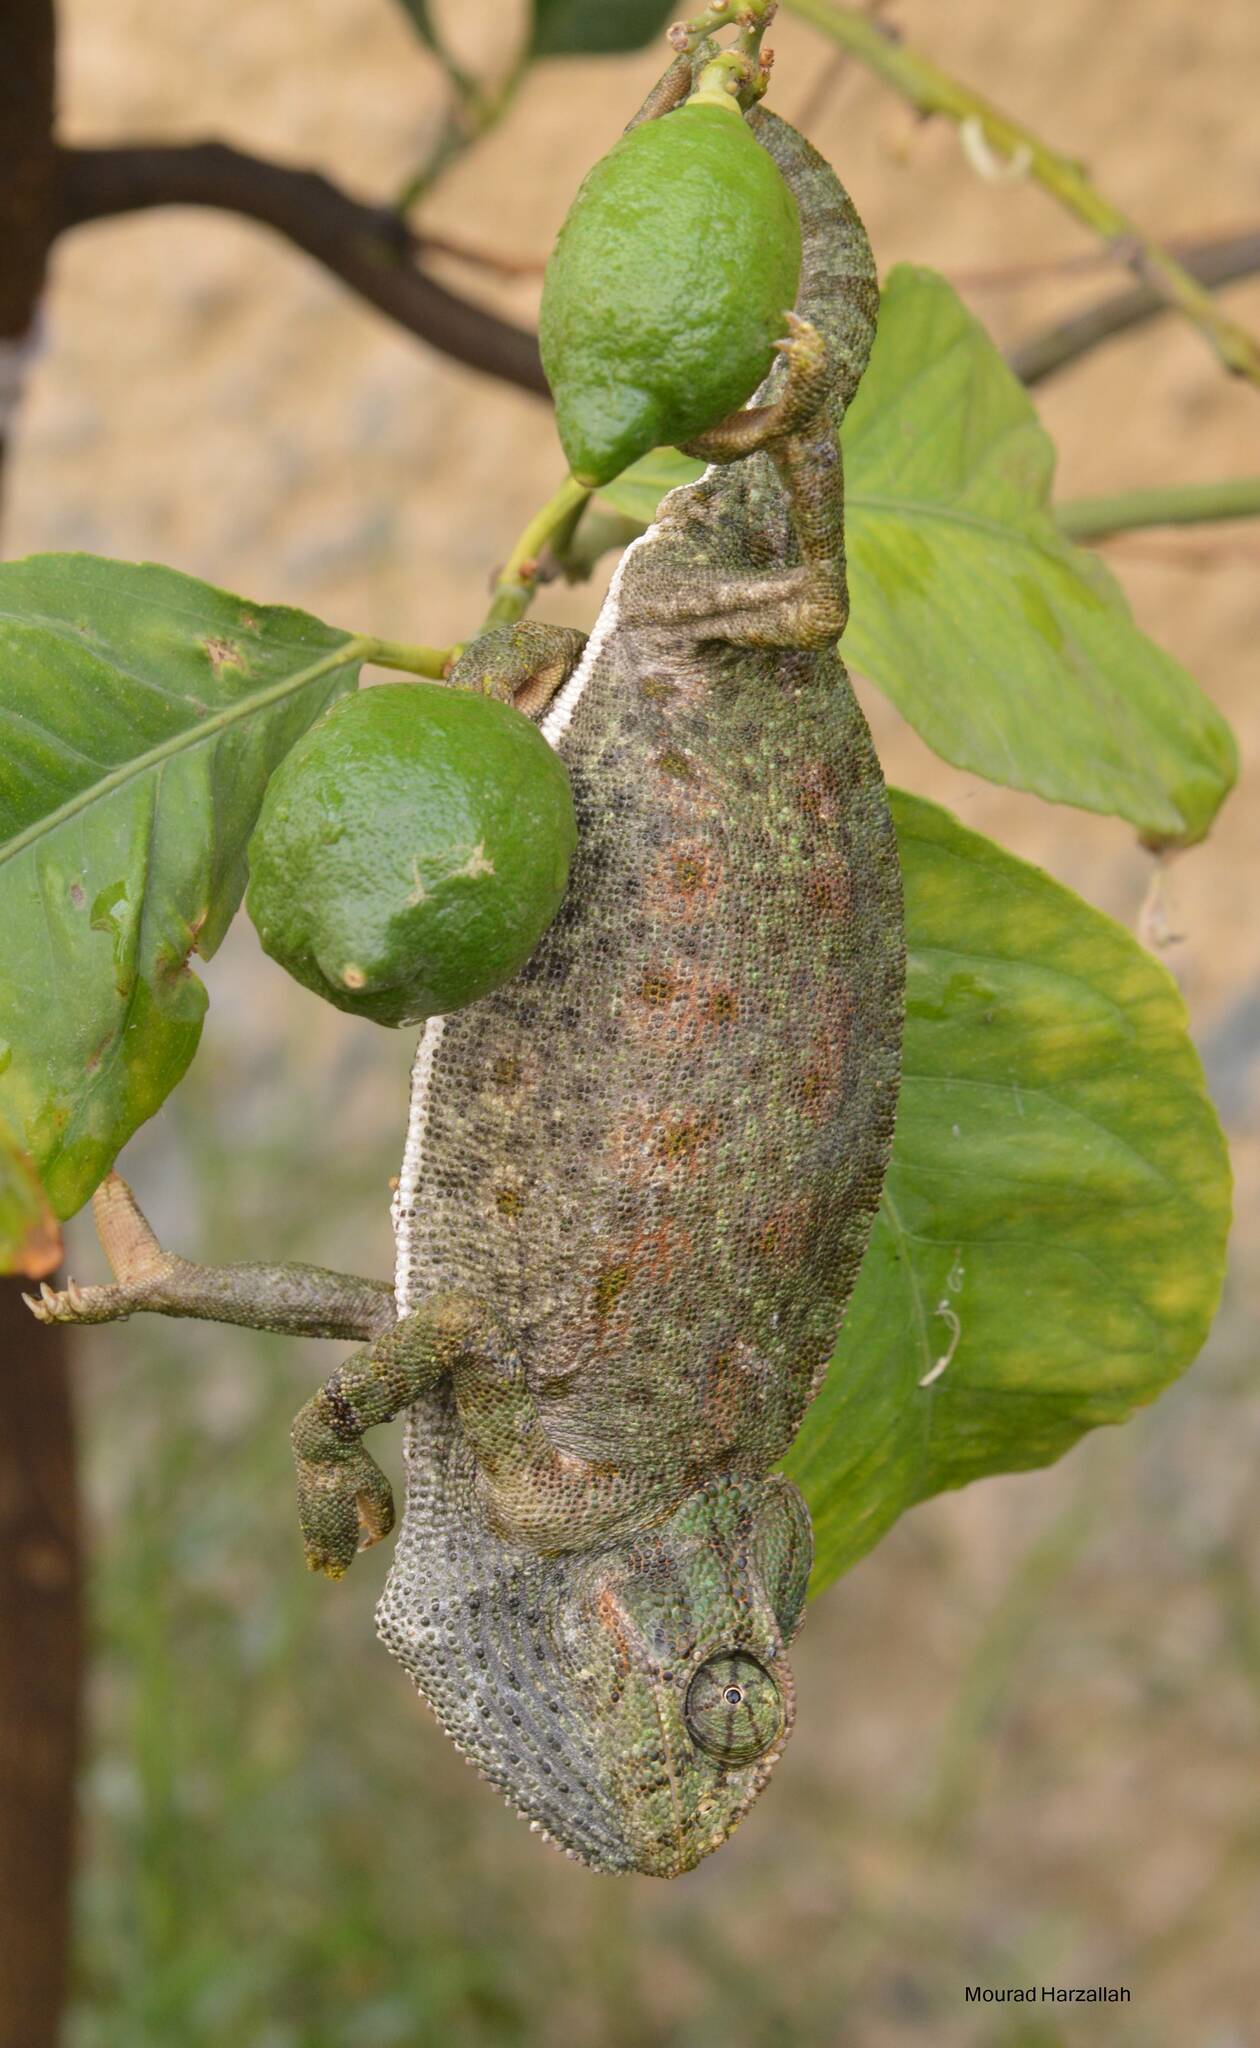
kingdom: Animalia
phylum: Chordata
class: Squamata
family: Chamaeleonidae
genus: Chamaeleo
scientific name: Chamaeleo chamaeleon
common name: Mediterranean chameleon
